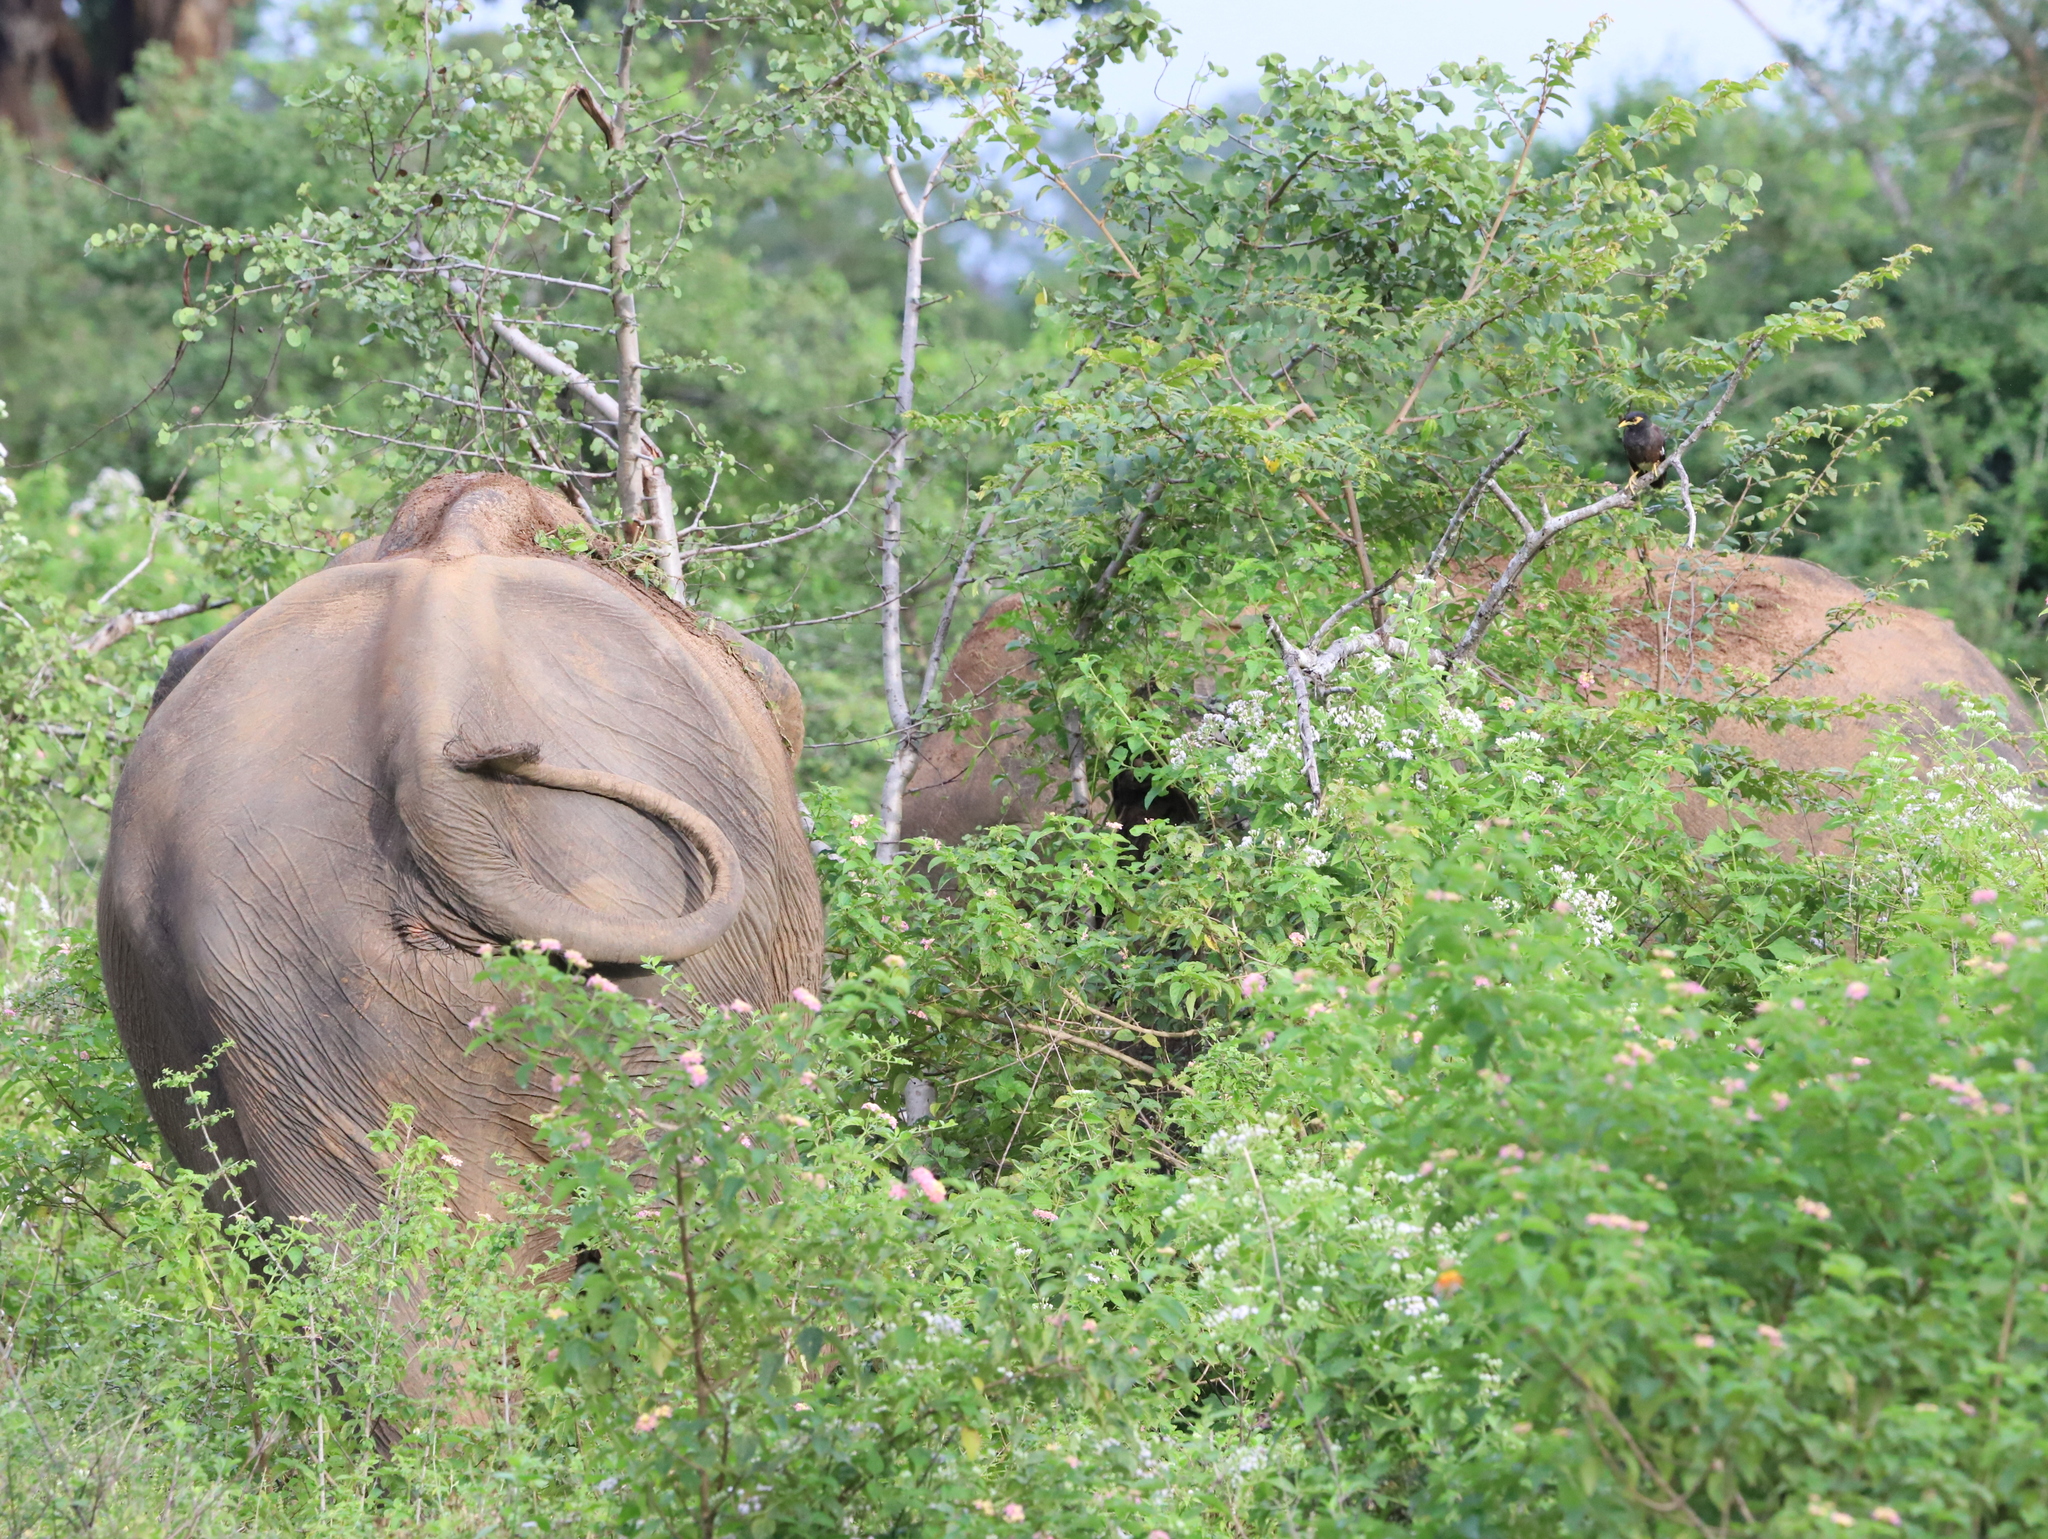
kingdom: Animalia
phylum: Chordata
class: Mammalia
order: Proboscidea
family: Elephantidae
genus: Elephas
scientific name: Elephas maximus
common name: Asian elephant
